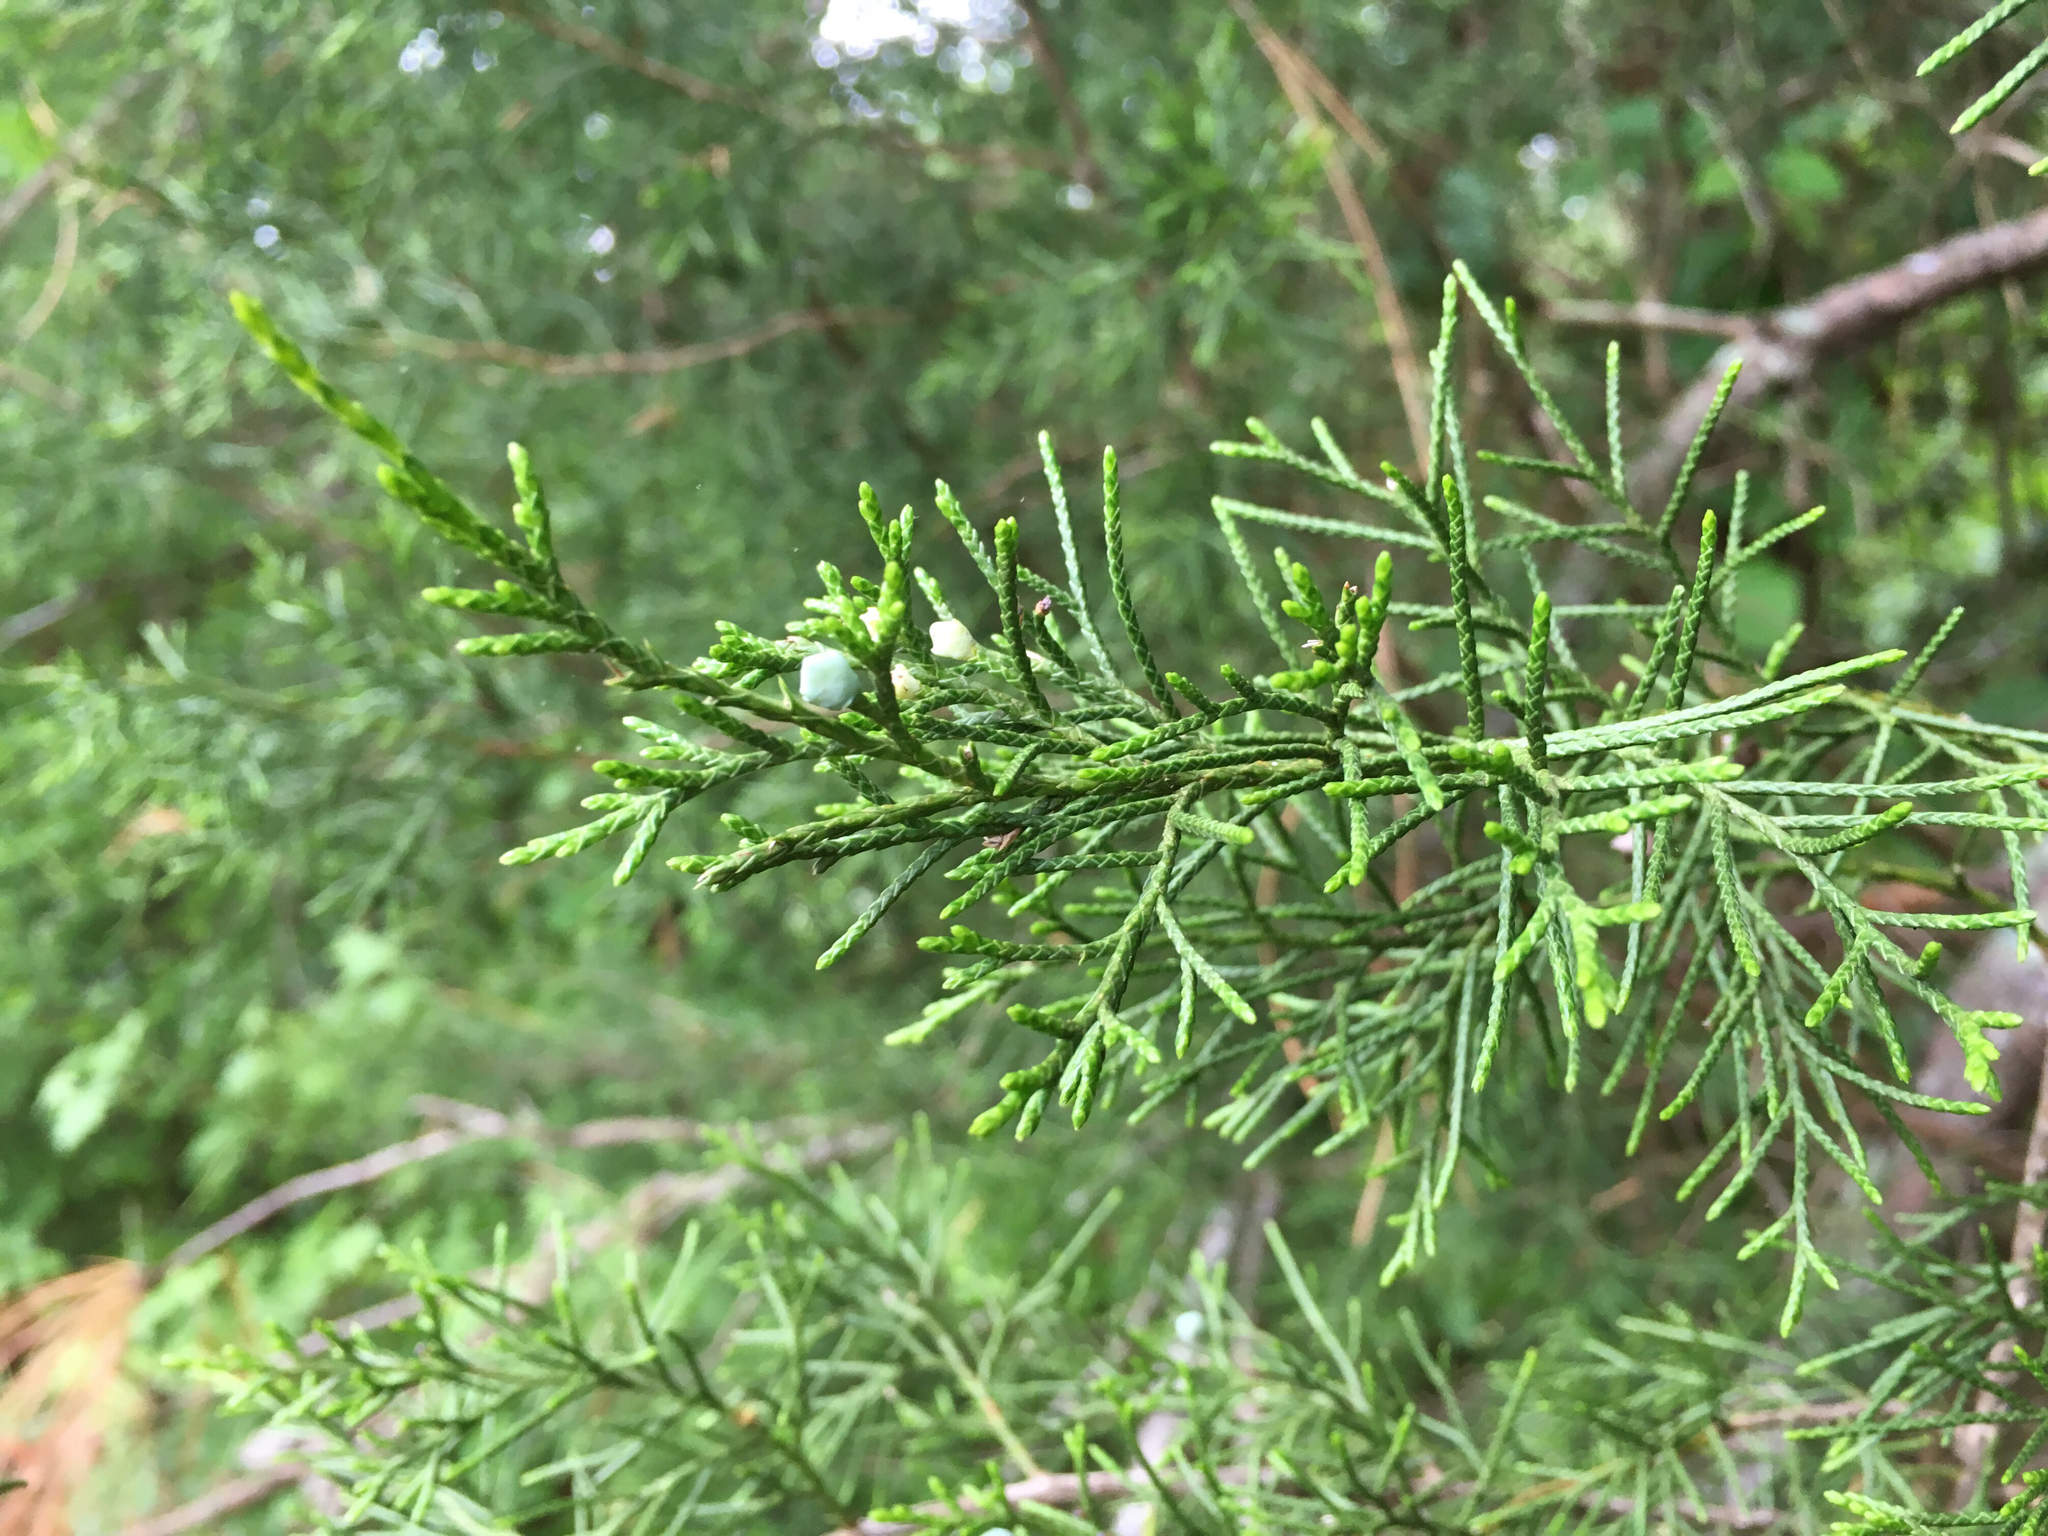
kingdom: Plantae
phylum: Tracheophyta
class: Pinopsida
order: Pinales
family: Cupressaceae
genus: Juniperus
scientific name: Juniperus virginiana
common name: Red juniper
